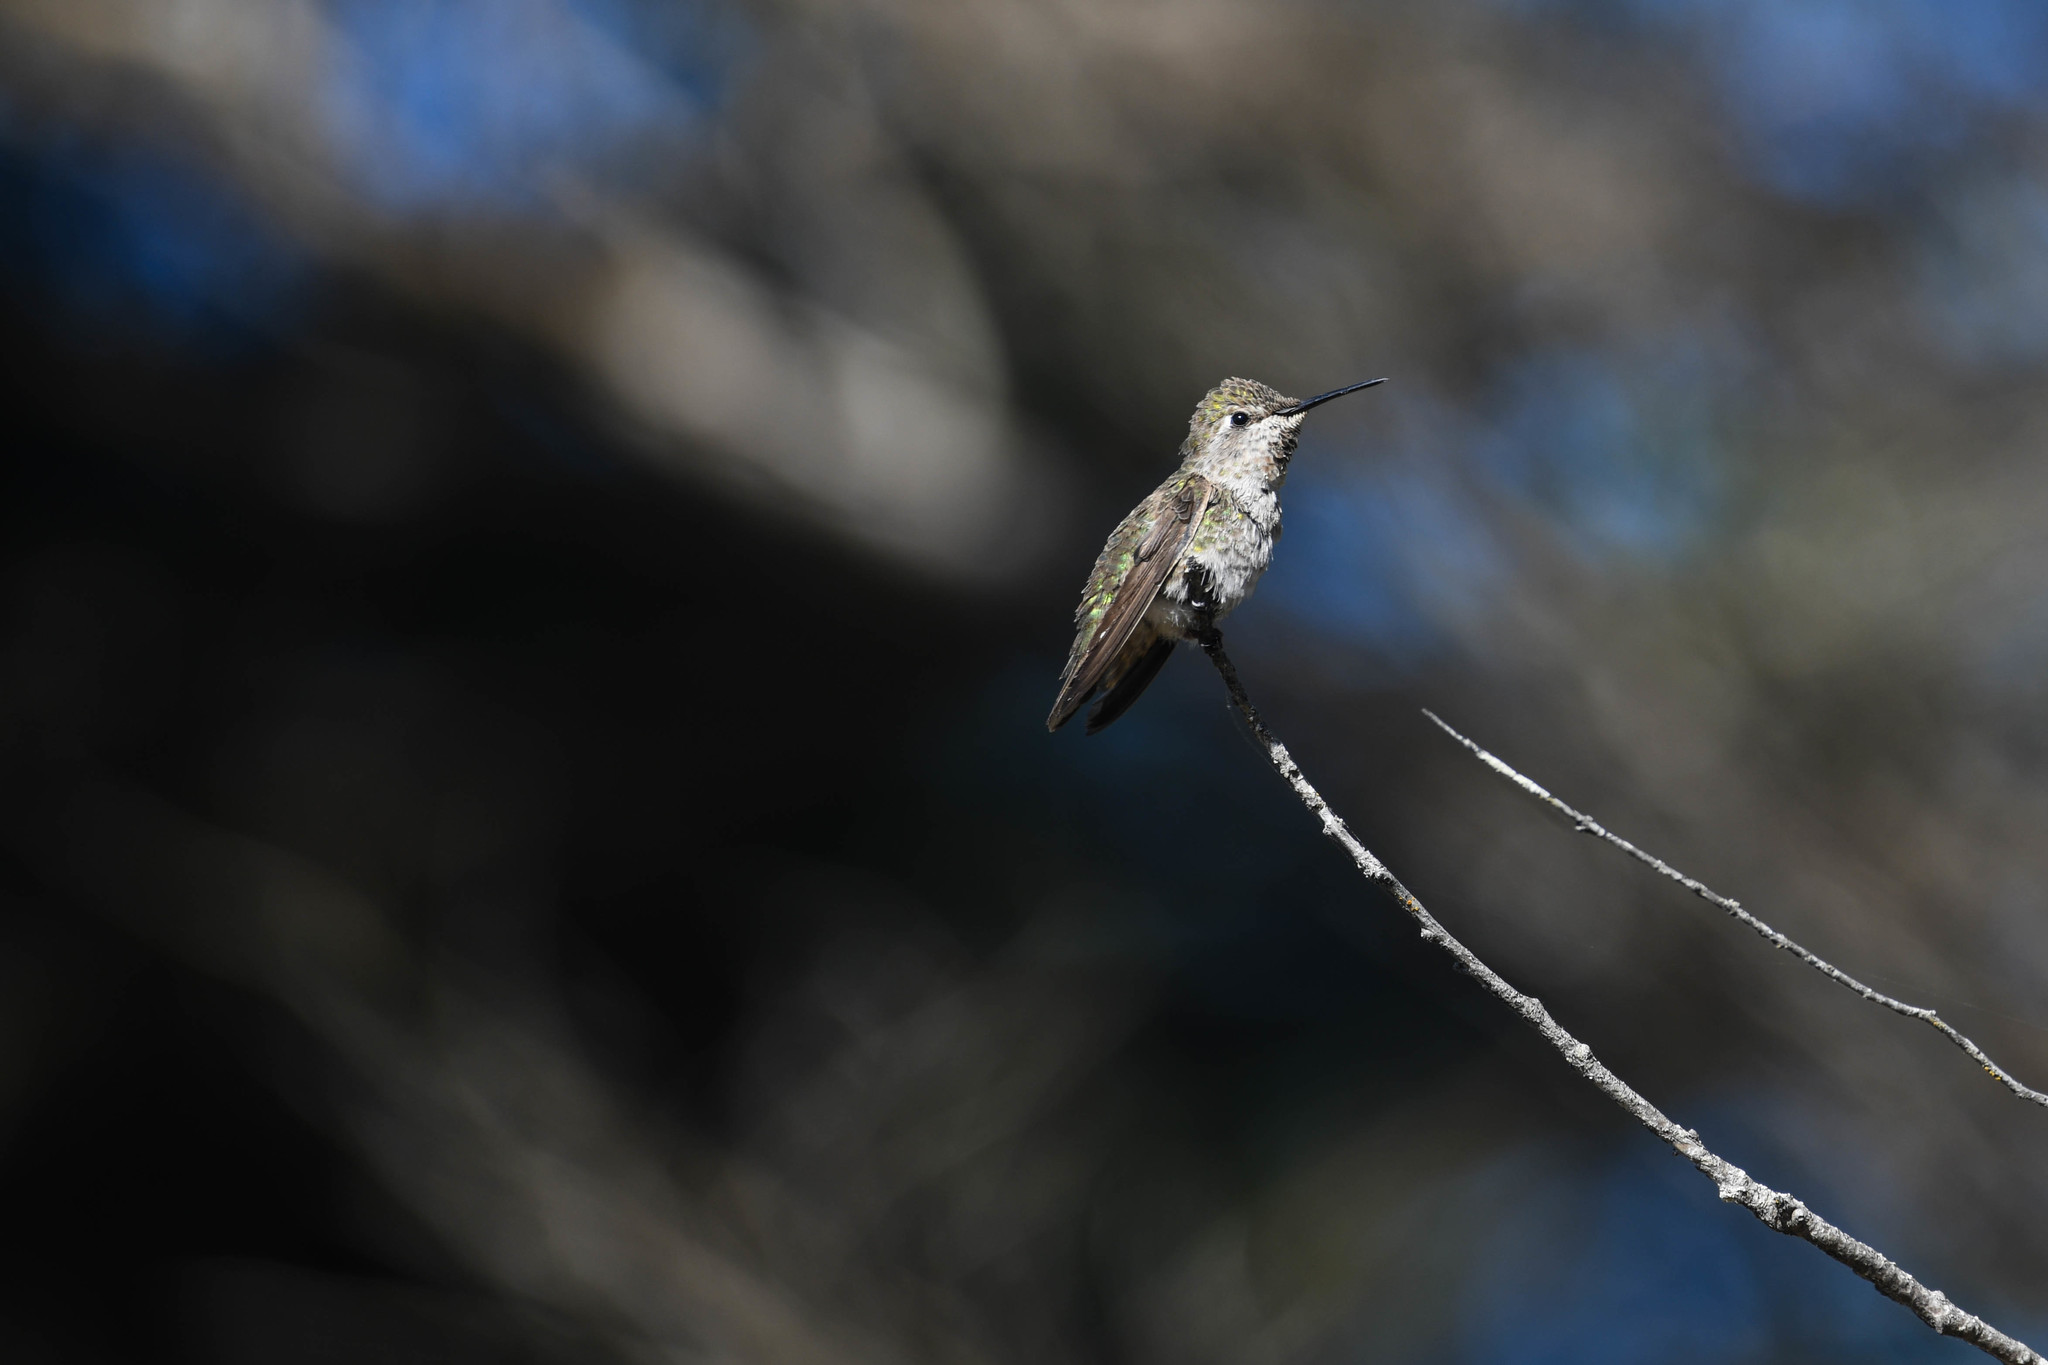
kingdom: Animalia
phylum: Chordata
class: Aves
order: Apodiformes
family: Trochilidae
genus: Calypte
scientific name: Calypte anna
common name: Anna's hummingbird
